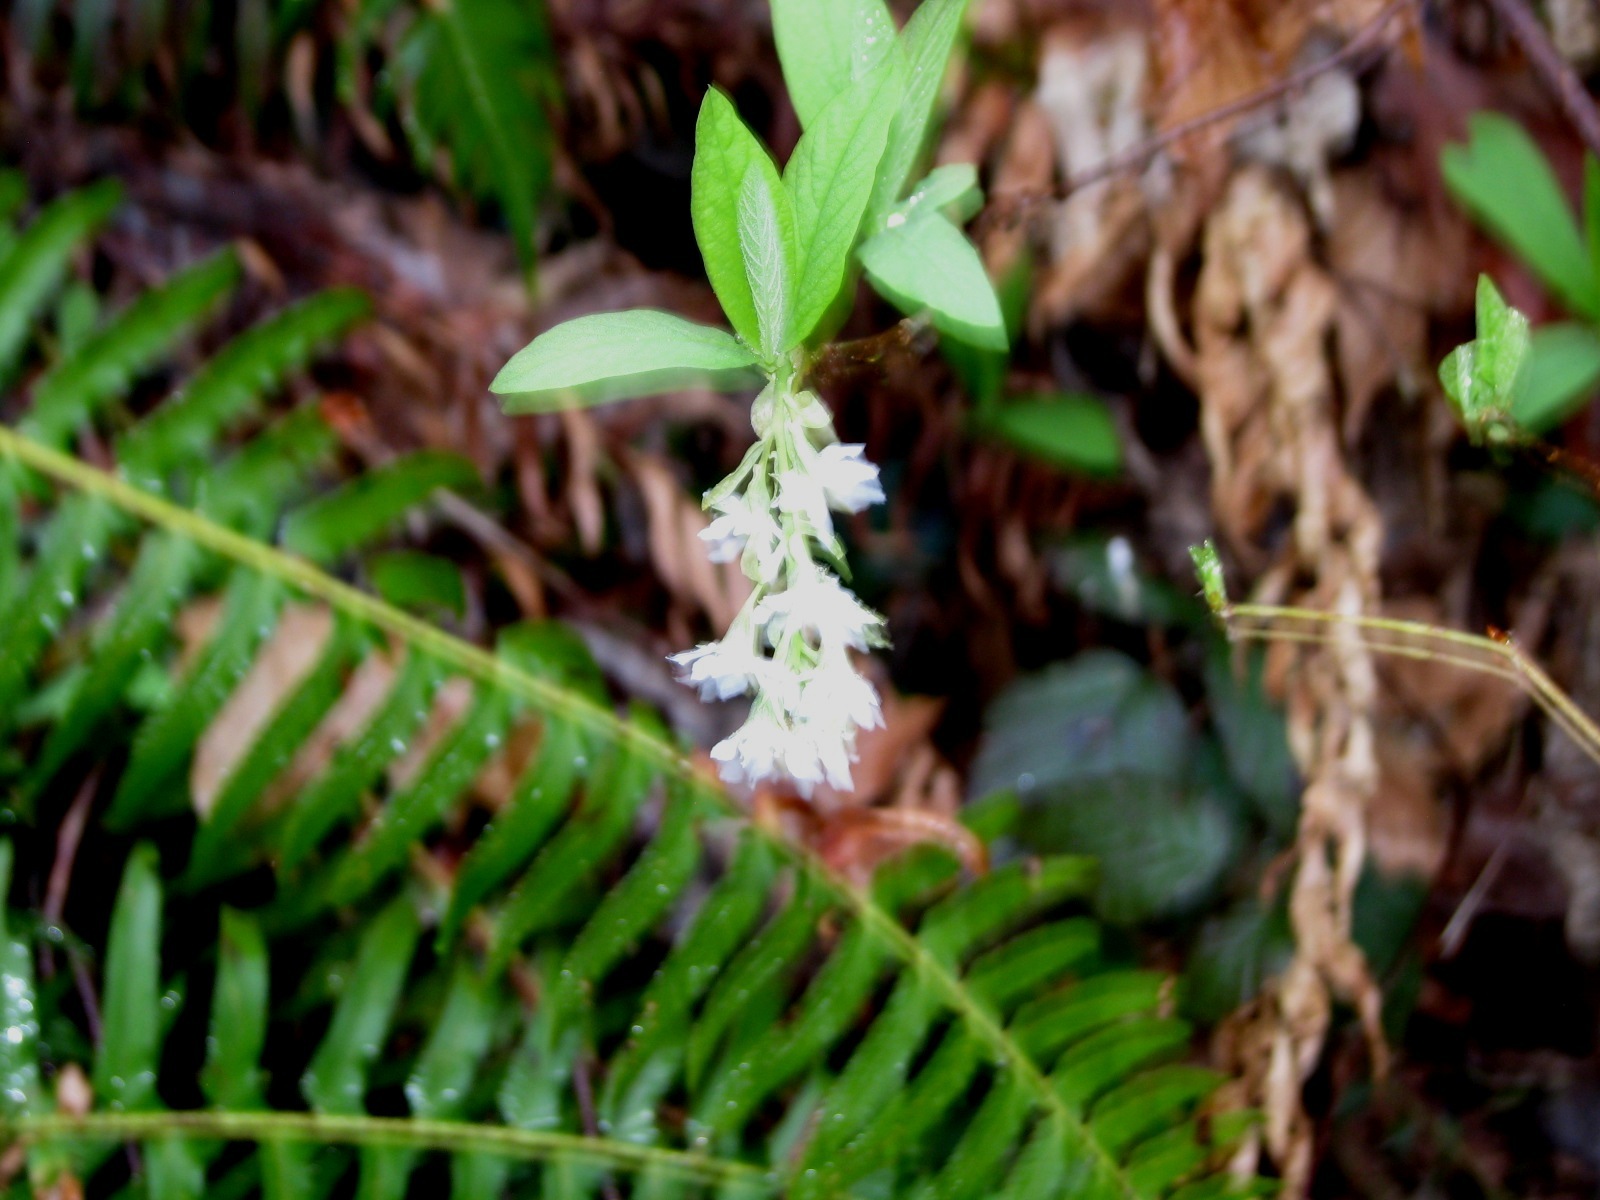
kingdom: Plantae
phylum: Tracheophyta
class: Magnoliopsida
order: Rosales
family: Rosaceae
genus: Oemleria
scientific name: Oemleria cerasiformis
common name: Osoberry
